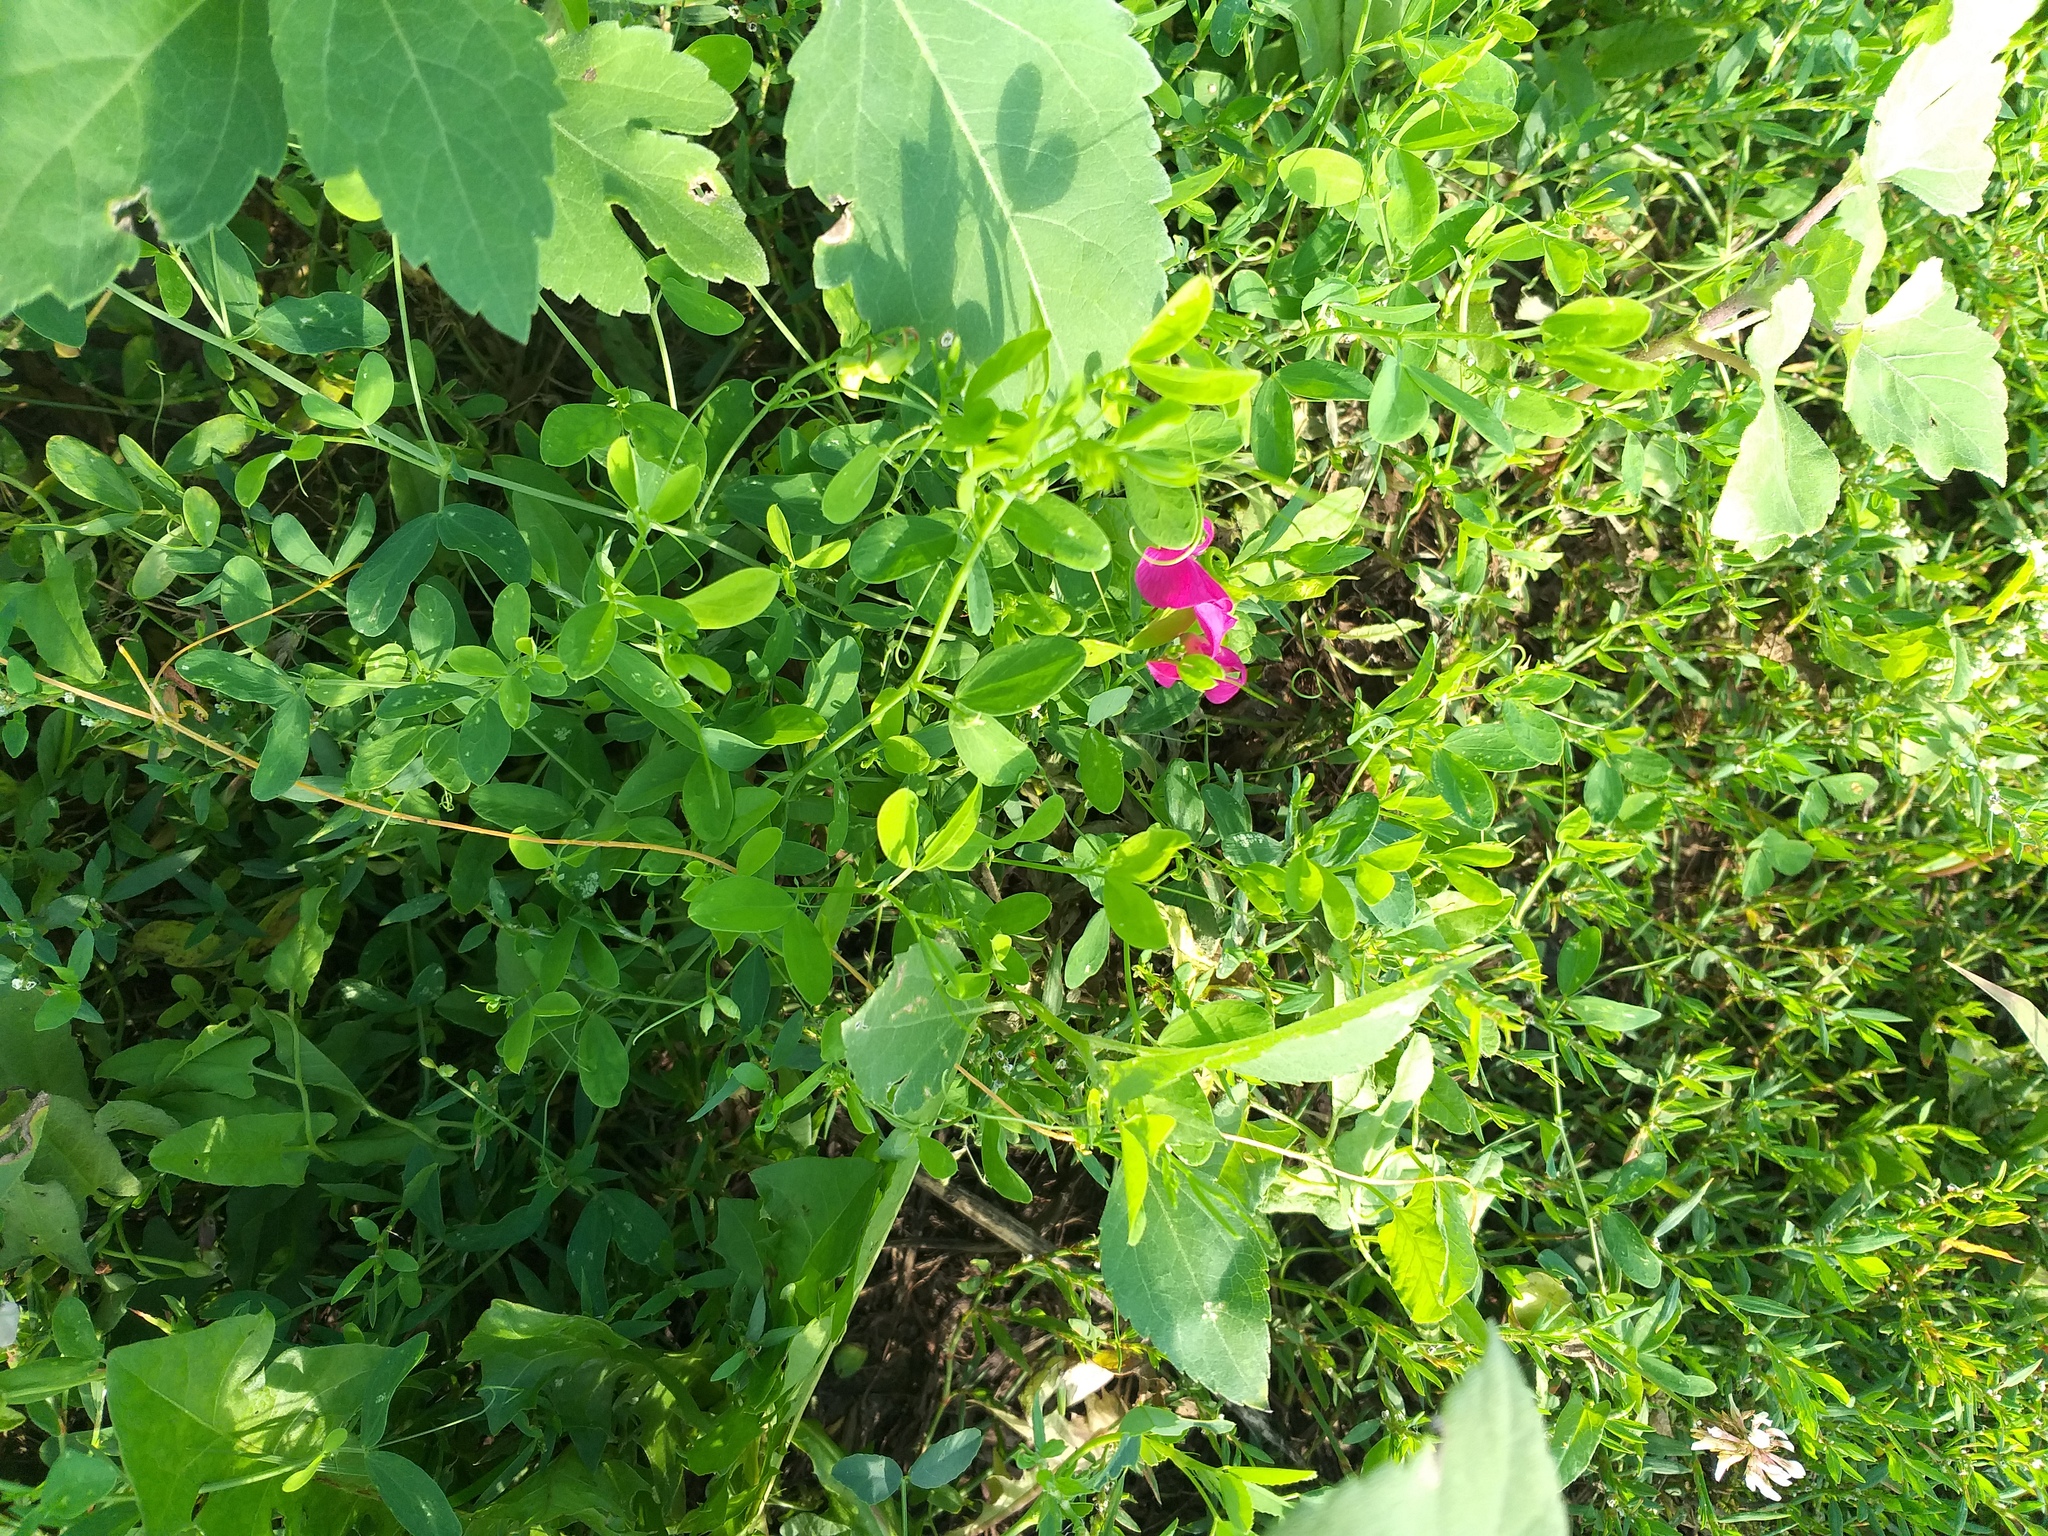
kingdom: Plantae
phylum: Tracheophyta
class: Magnoliopsida
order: Fabales
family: Fabaceae
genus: Lathyrus
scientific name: Lathyrus tuberosus
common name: Tuberous pea
